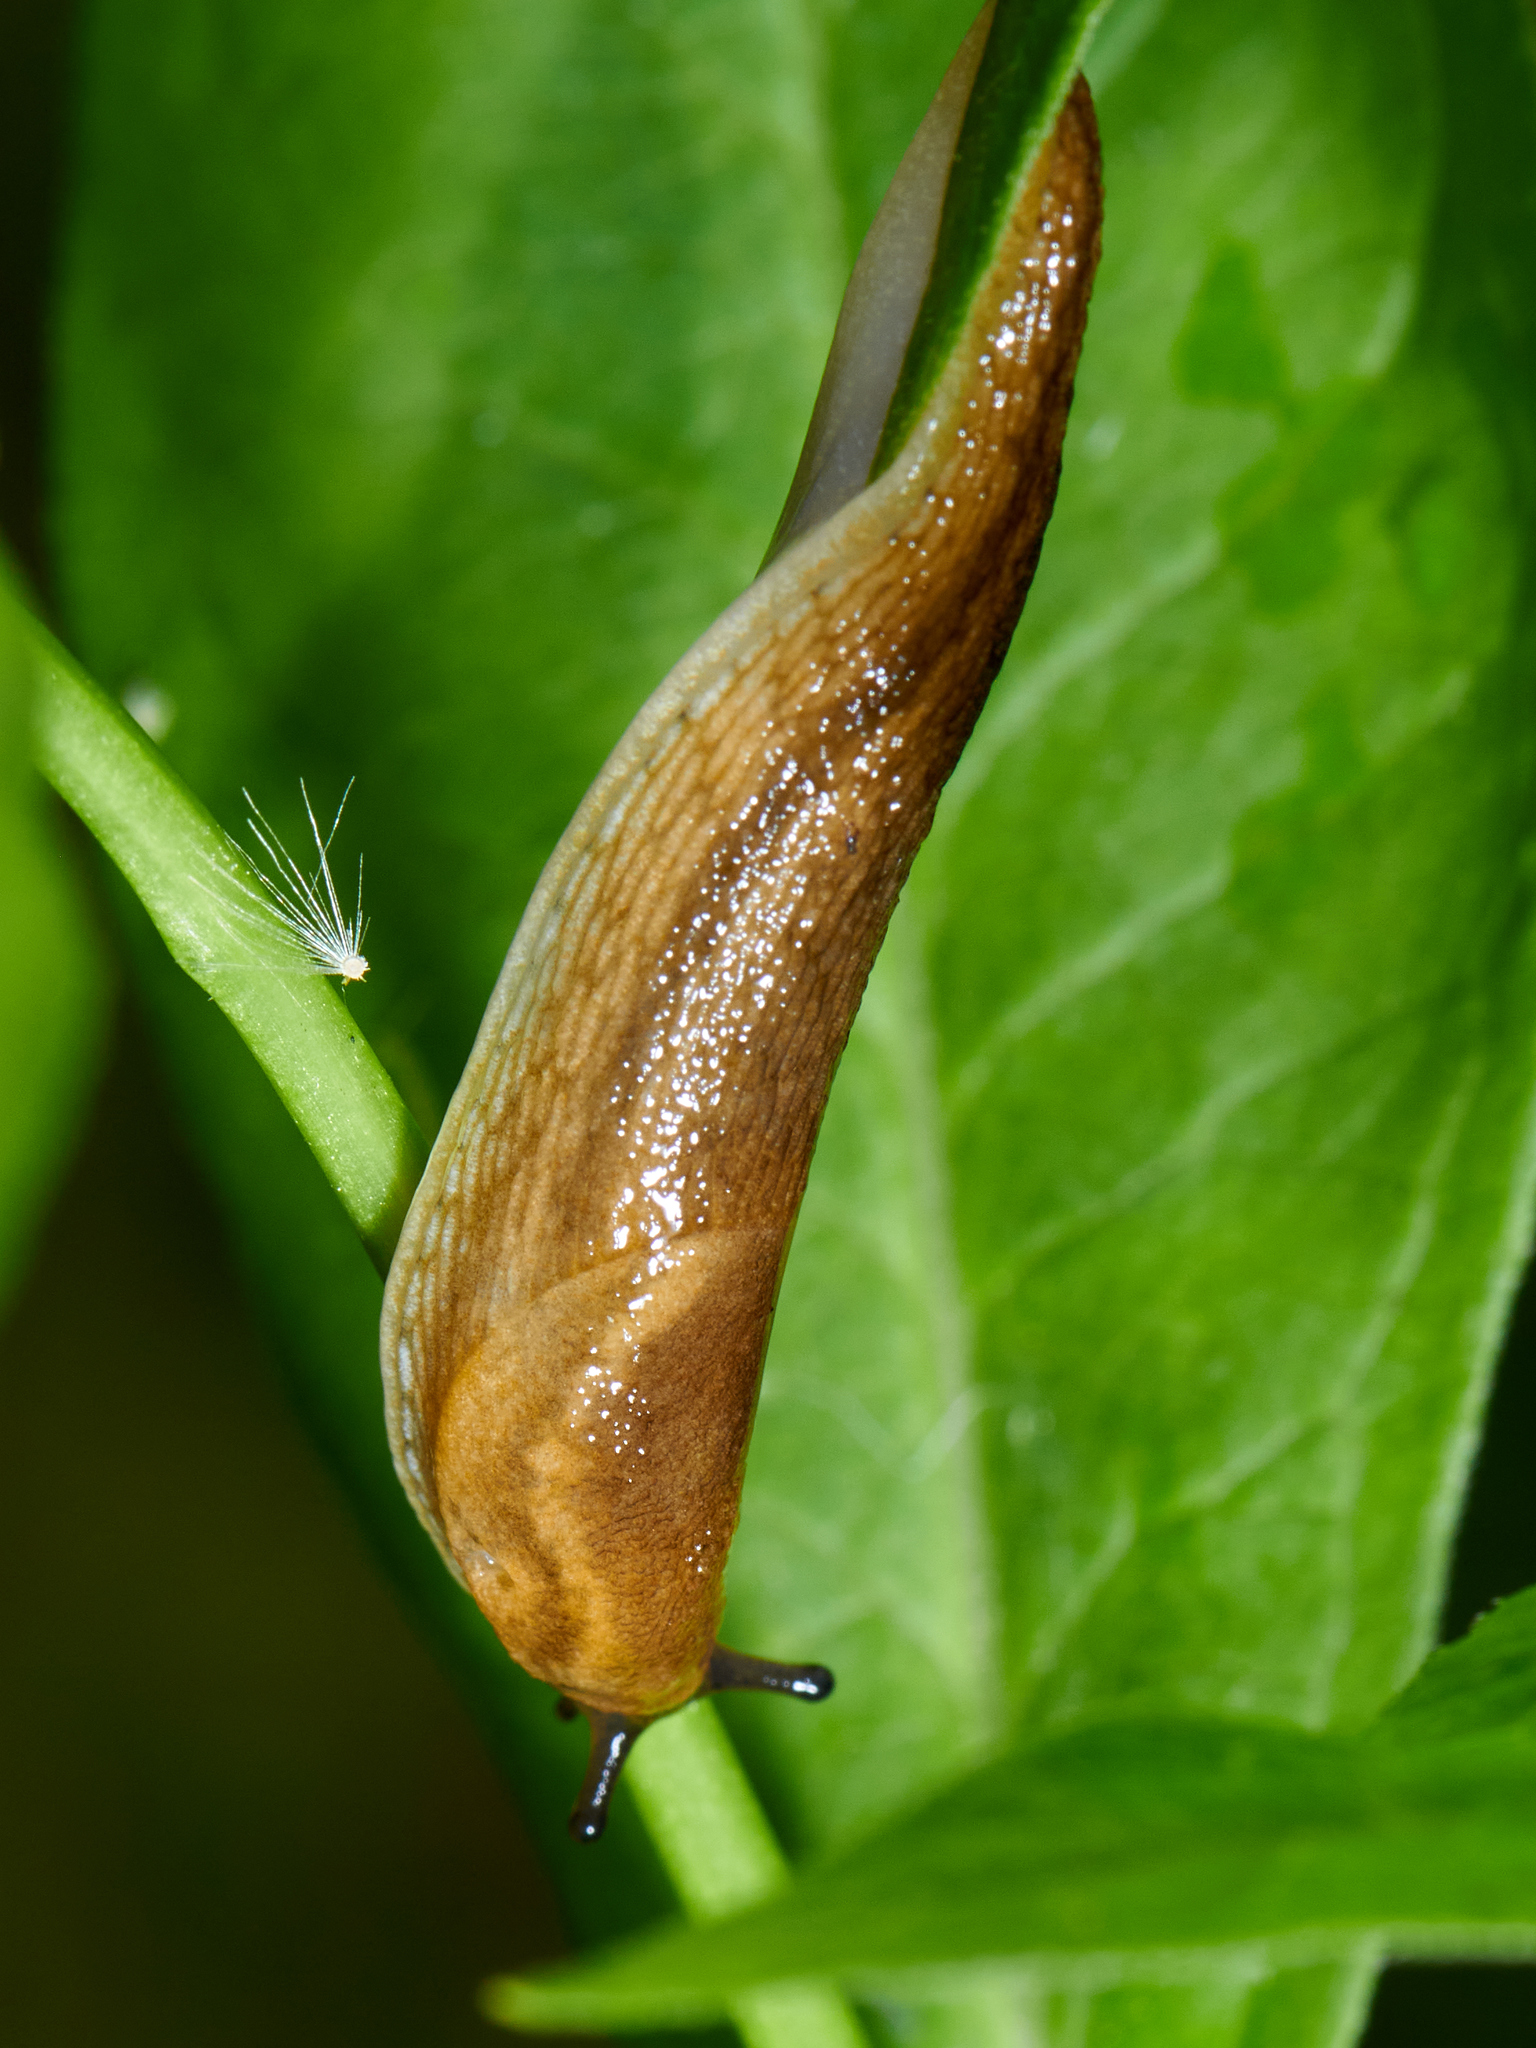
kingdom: Animalia
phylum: Mollusca
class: Gastropoda
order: Stylommatophora
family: Arionidae
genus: Arion
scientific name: Arion fuscus
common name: Northern dusky slug
